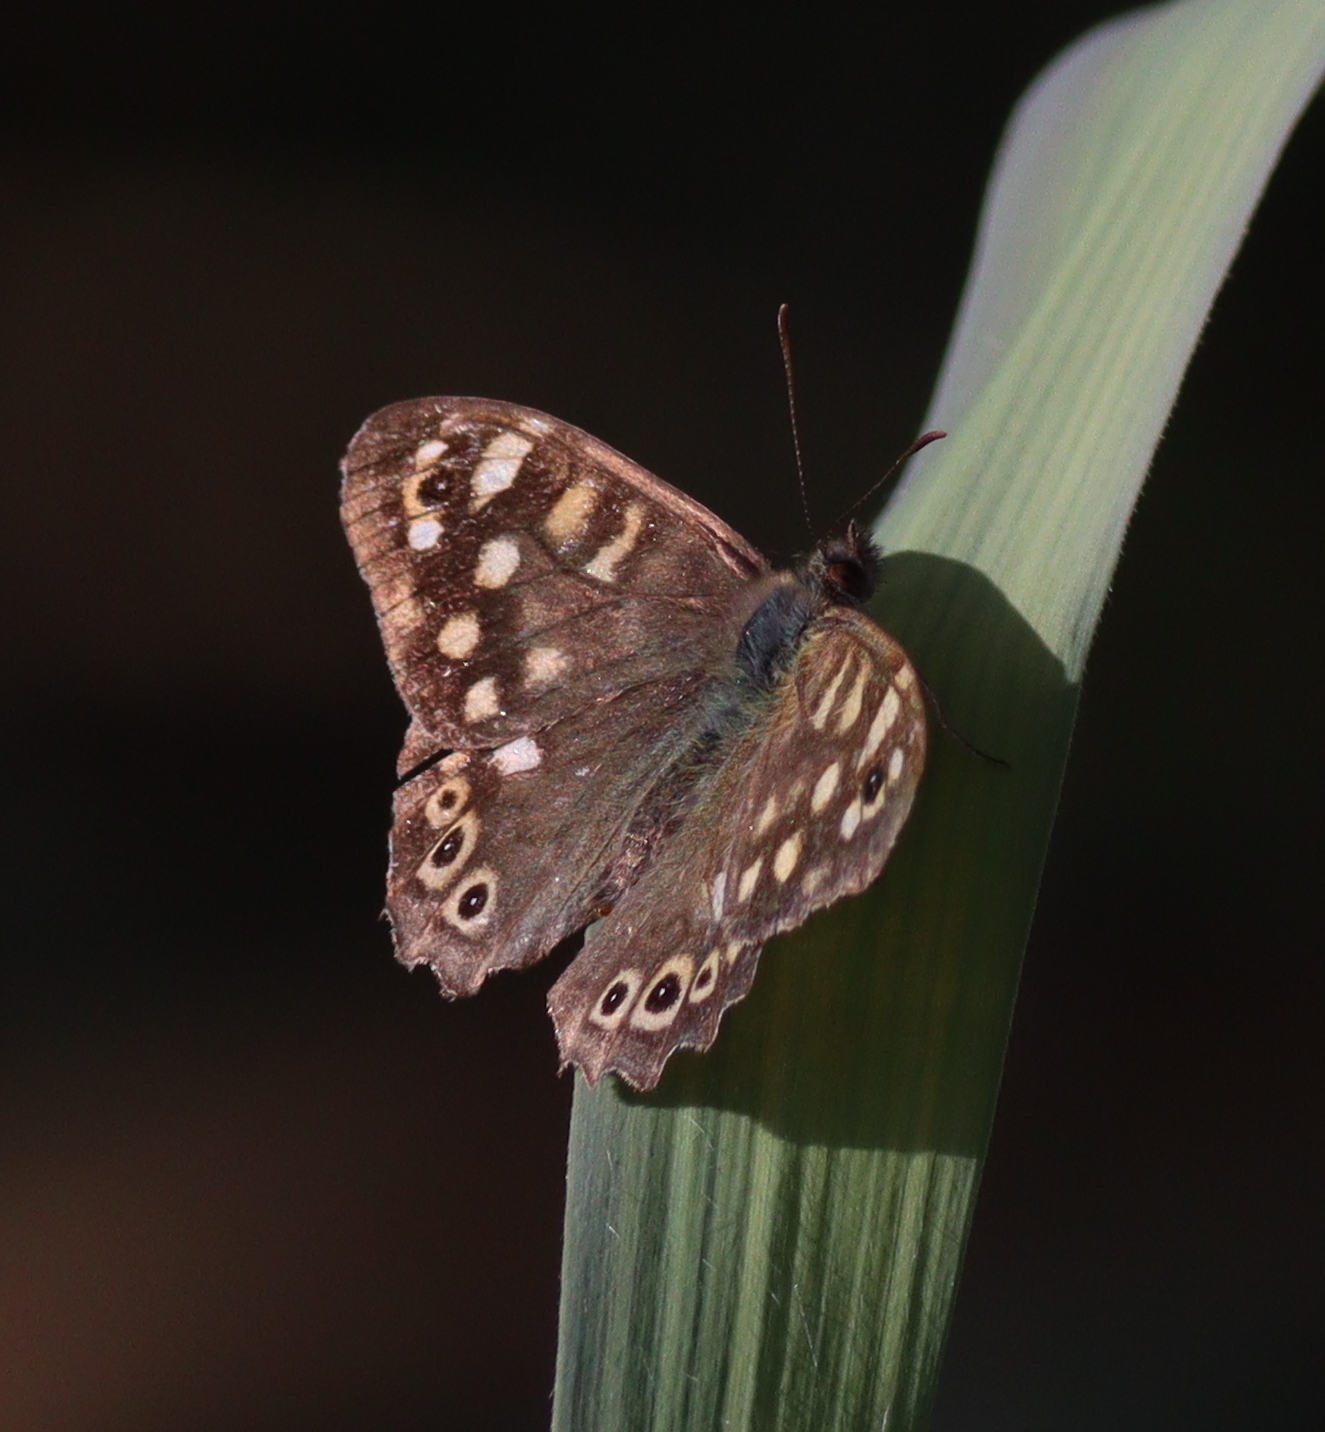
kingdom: Animalia
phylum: Arthropoda
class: Insecta
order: Lepidoptera
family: Nymphalidae
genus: Pararge
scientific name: Pararge aegeria
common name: Speckled wood
